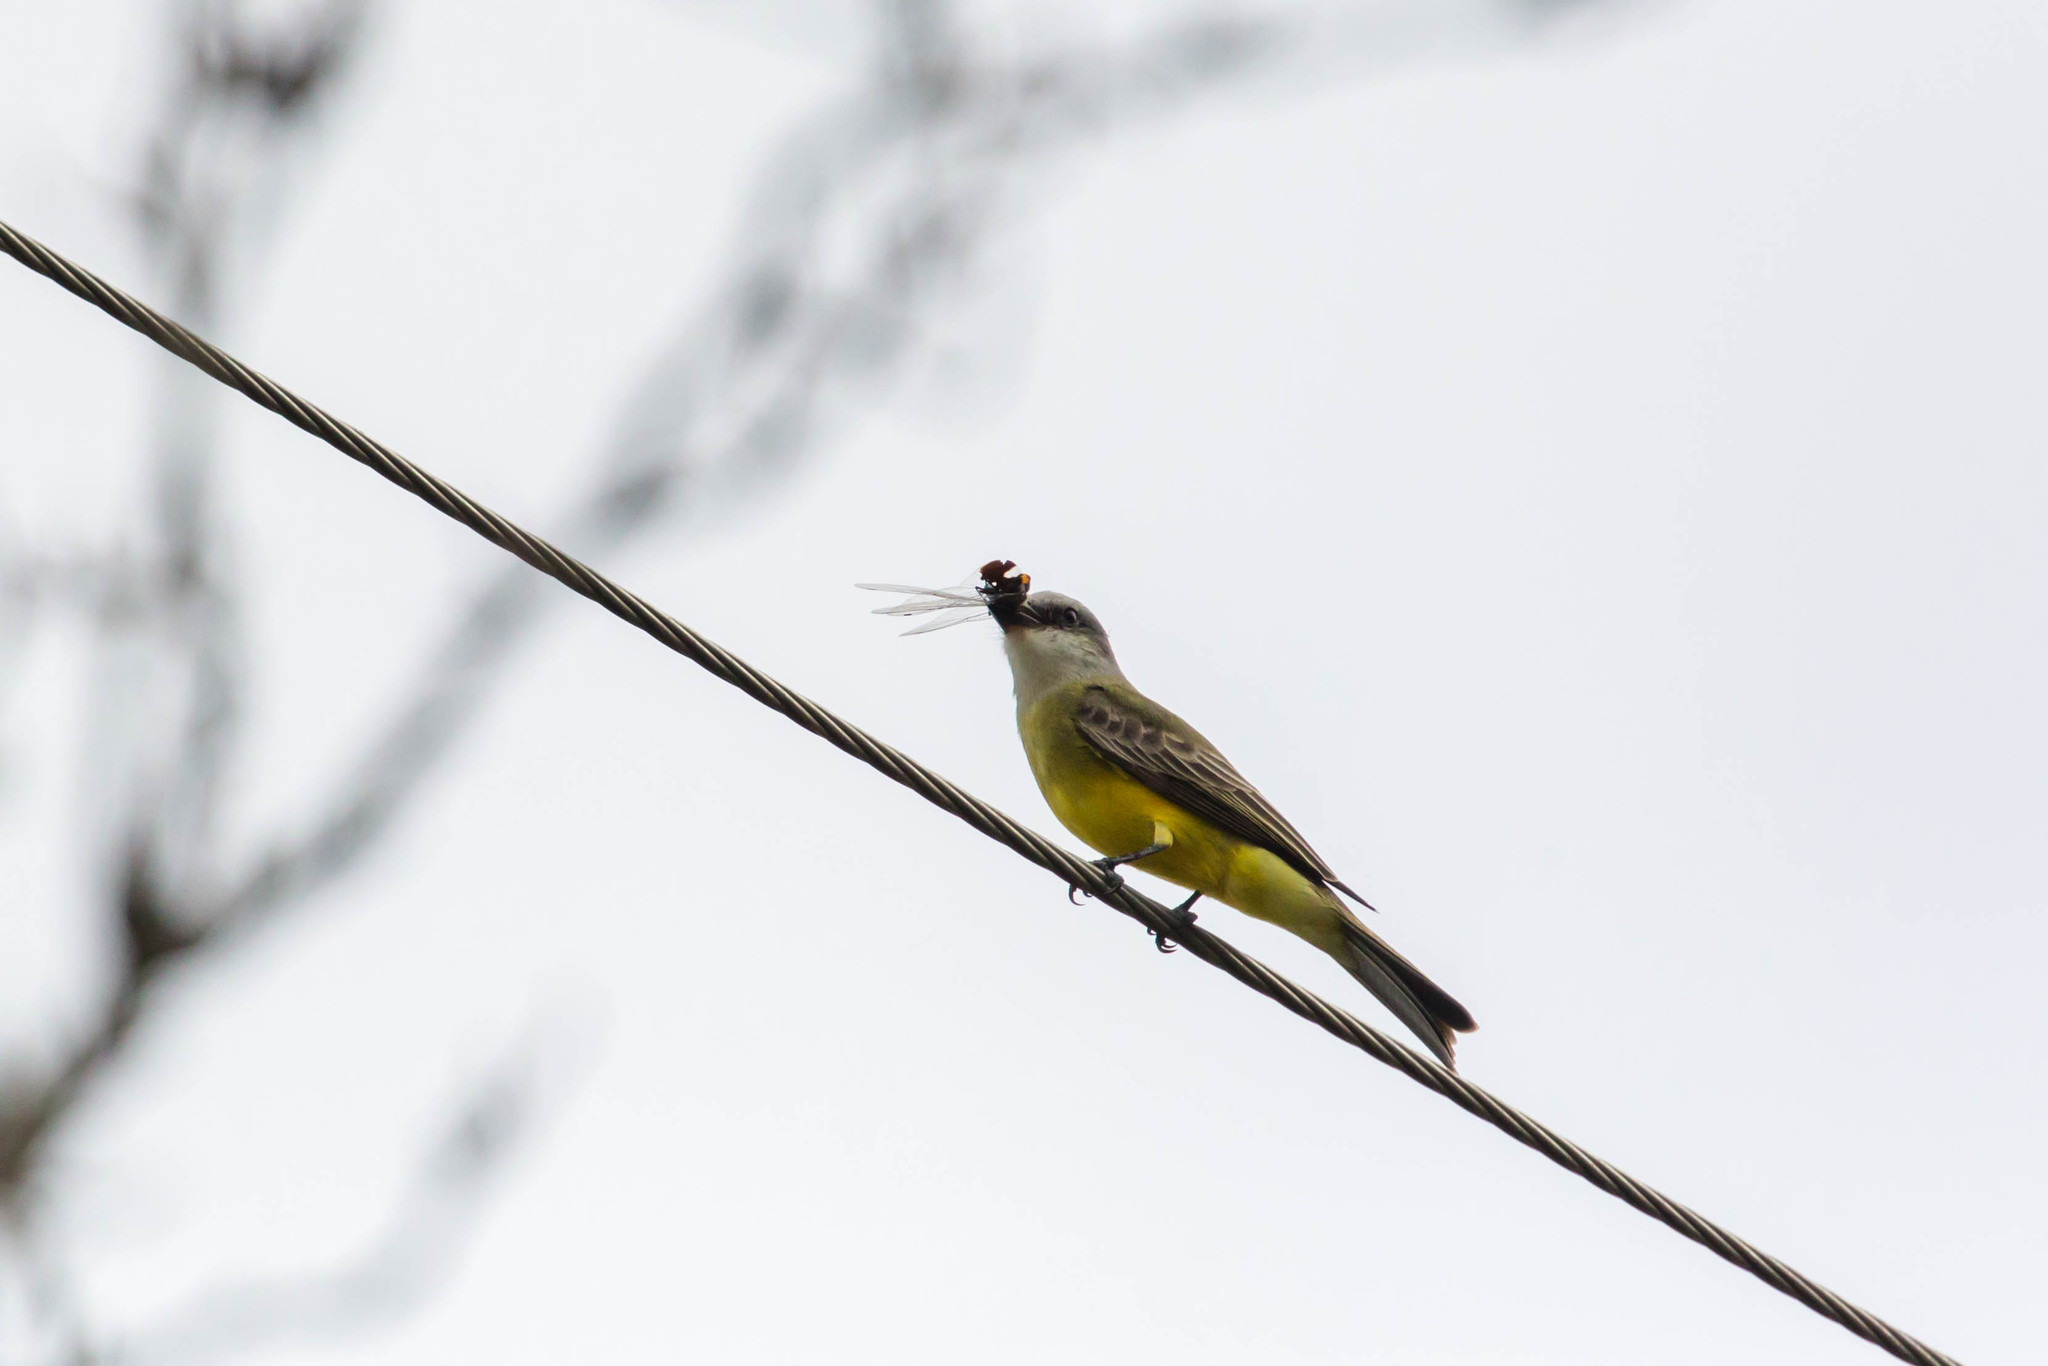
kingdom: Animalia
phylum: Chordata
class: Aves
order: Passeriformes
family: Tyrannidae
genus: Tyrannus
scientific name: Tyrannus
